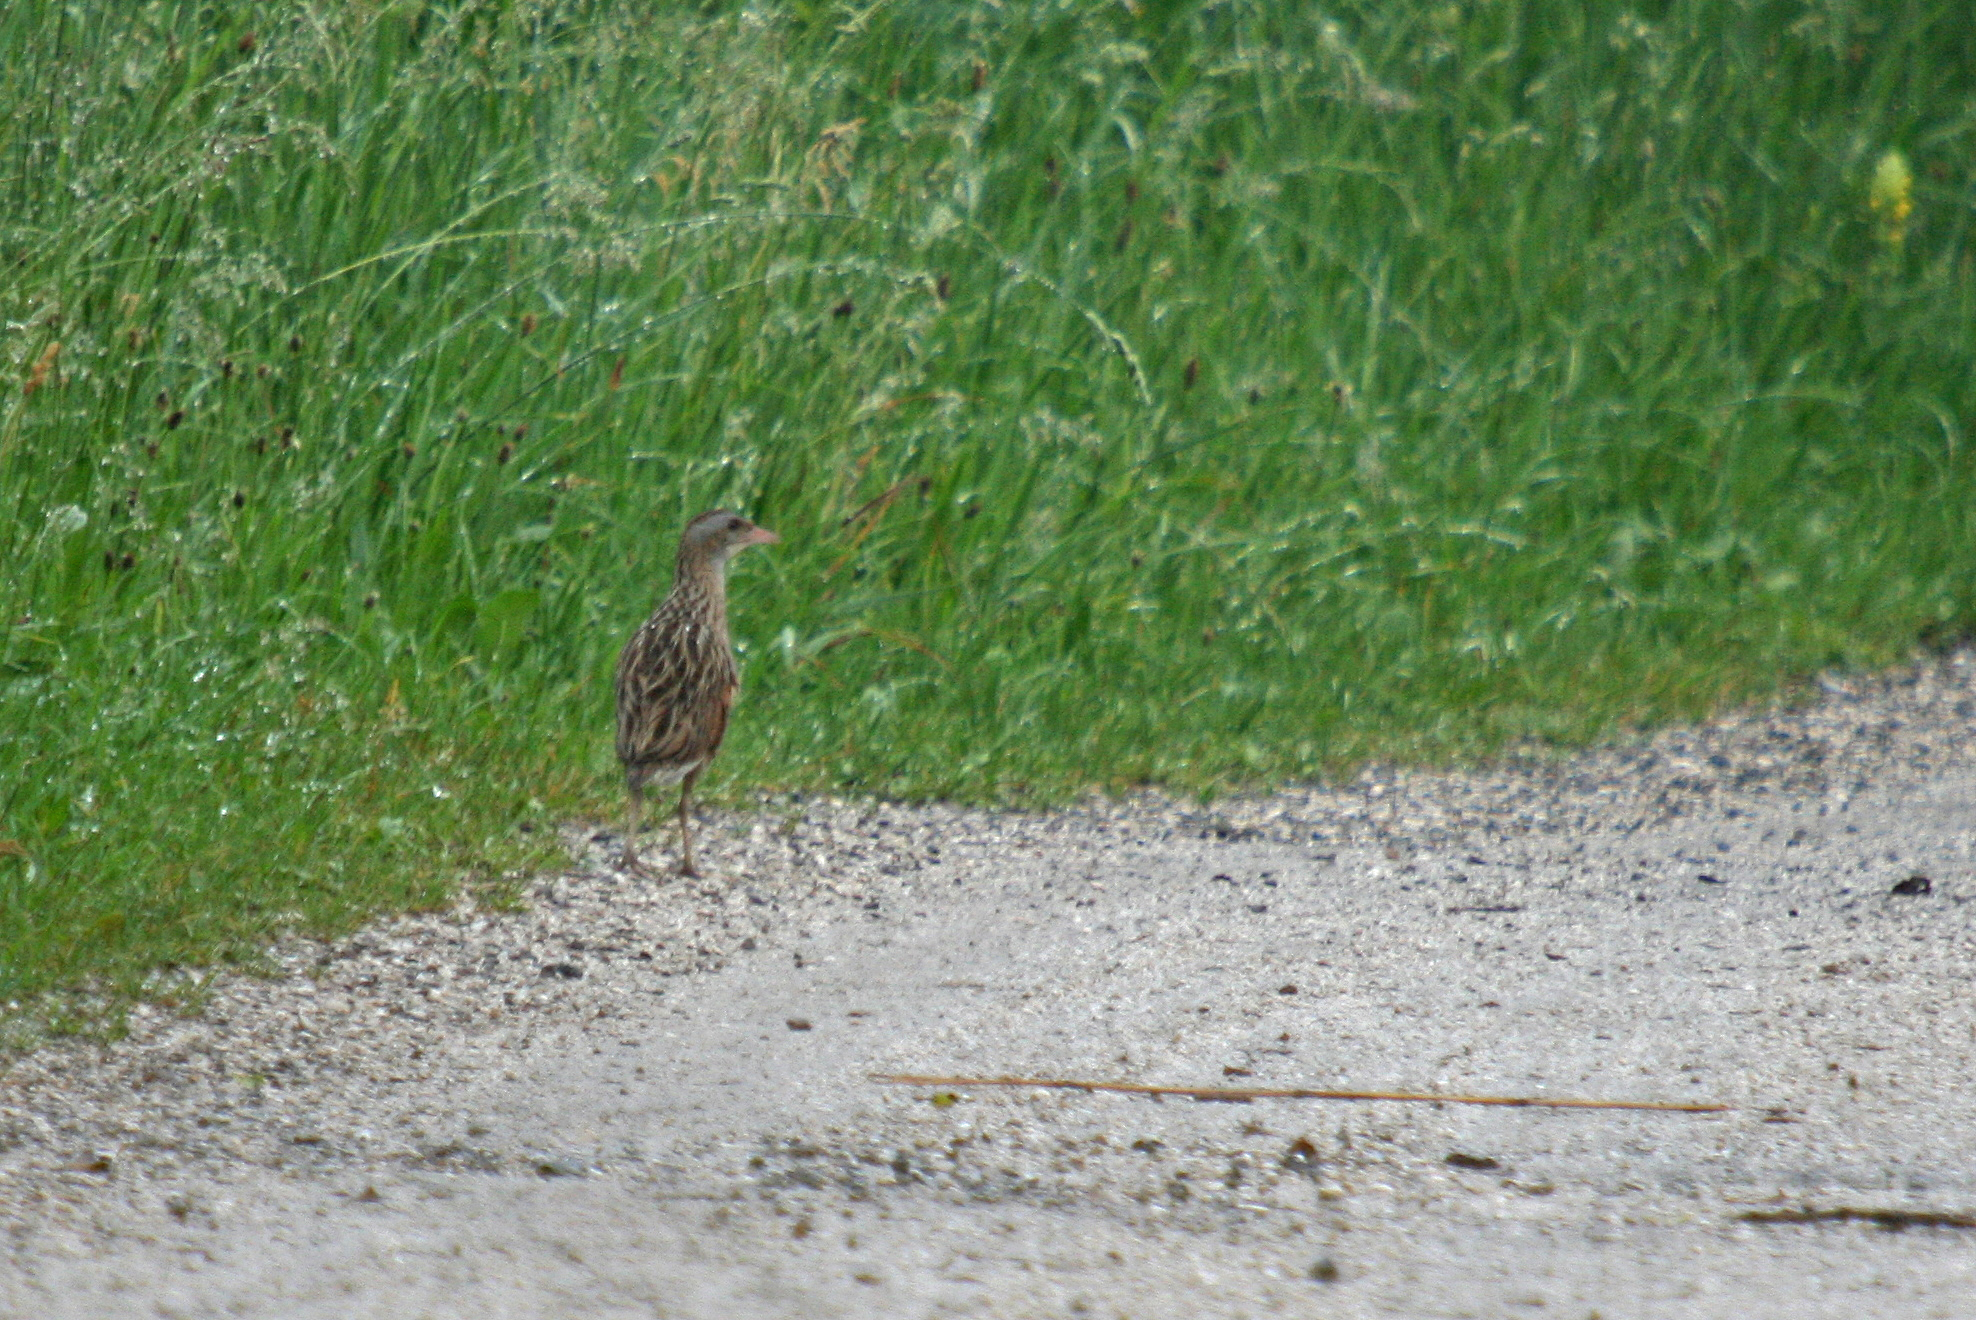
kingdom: Animalia
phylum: Chordata
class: Aves
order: Gruiformes
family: Rallidae
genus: Crex
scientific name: Crex crex
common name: Corn crake
